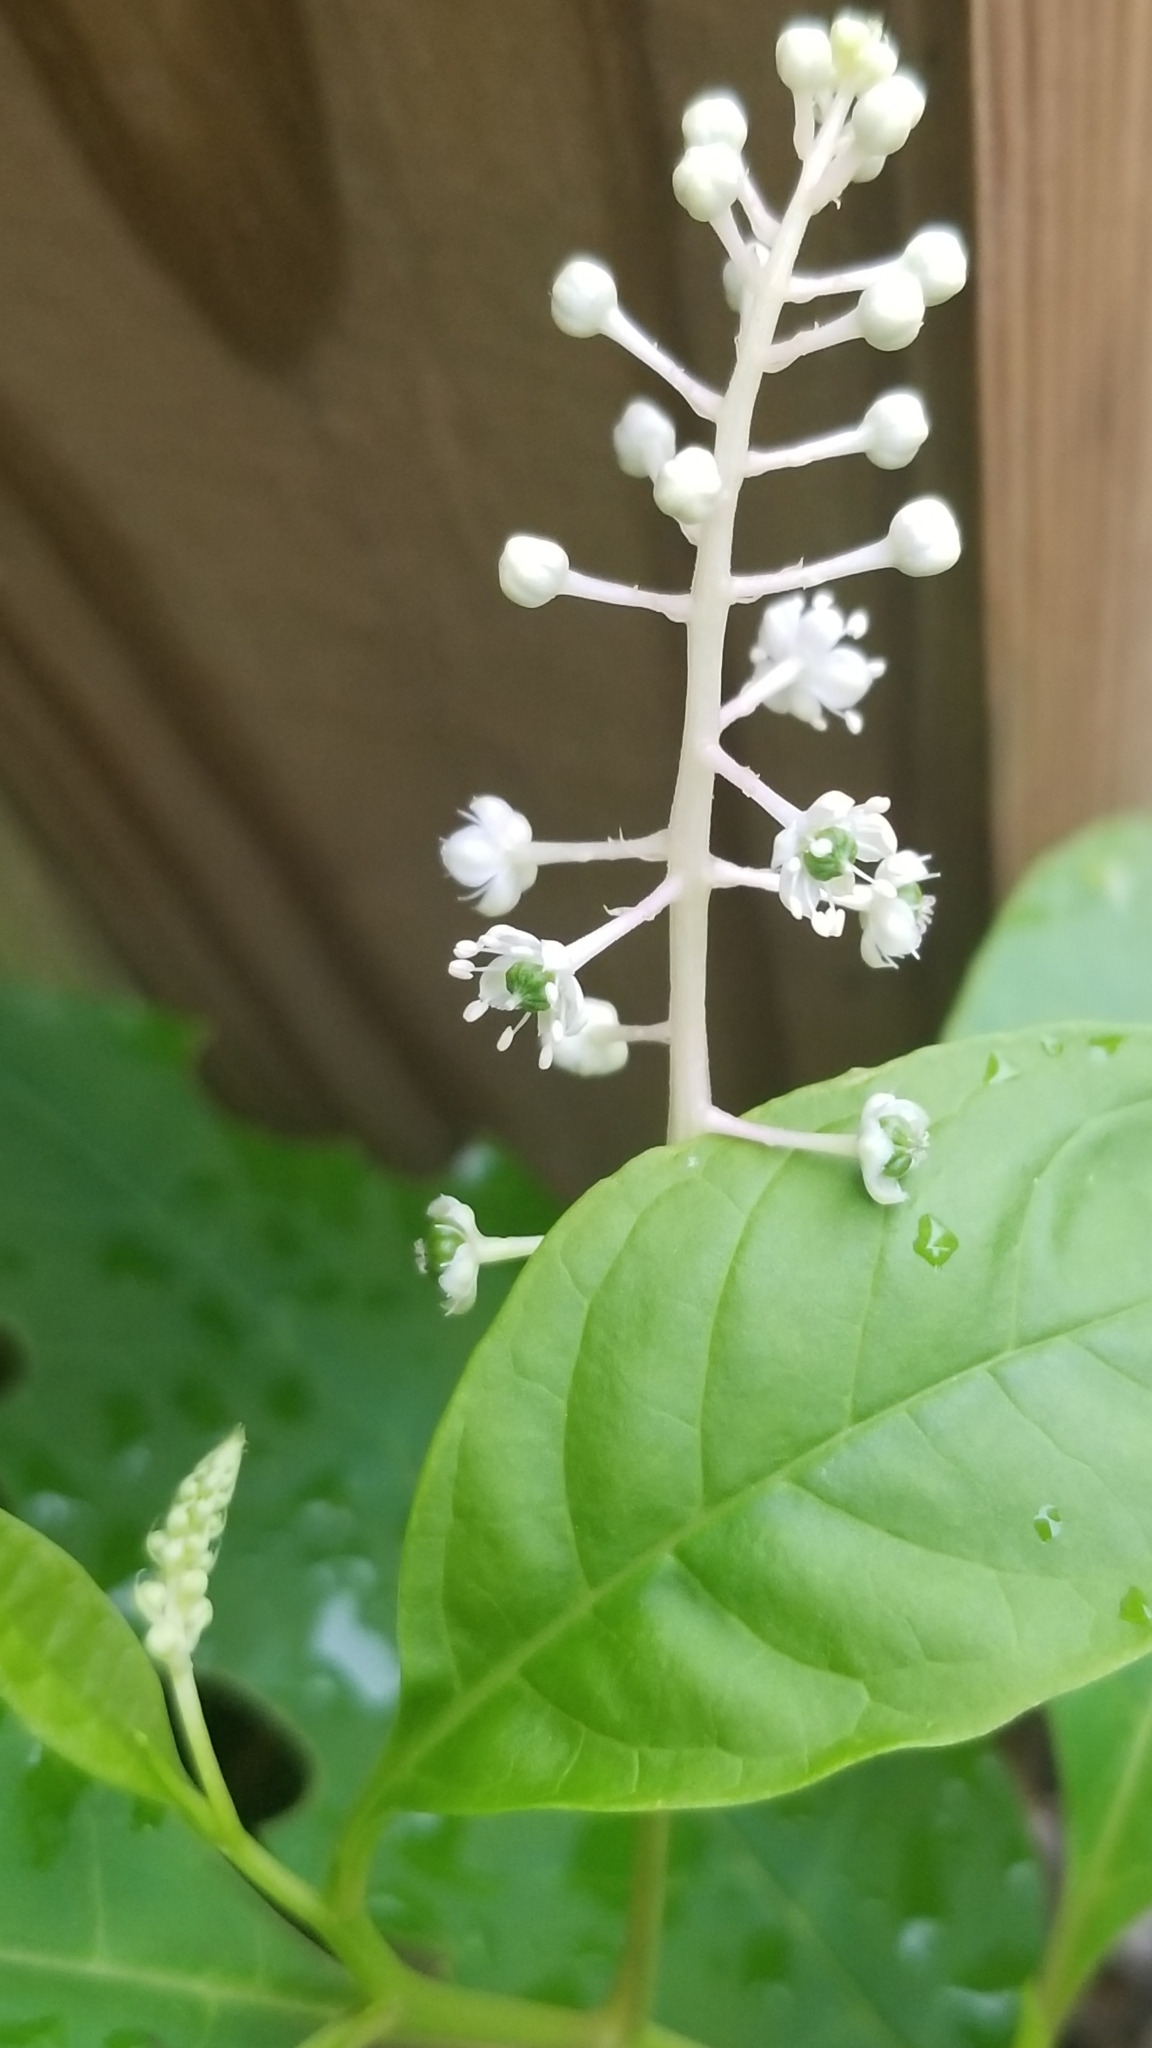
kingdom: Plantae
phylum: Tracheophyta
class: Magnoliopsida
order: Caryophyllales
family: Phytolaccaceae
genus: Phytolacca
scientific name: Phytolacca americana
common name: American pokeweed
